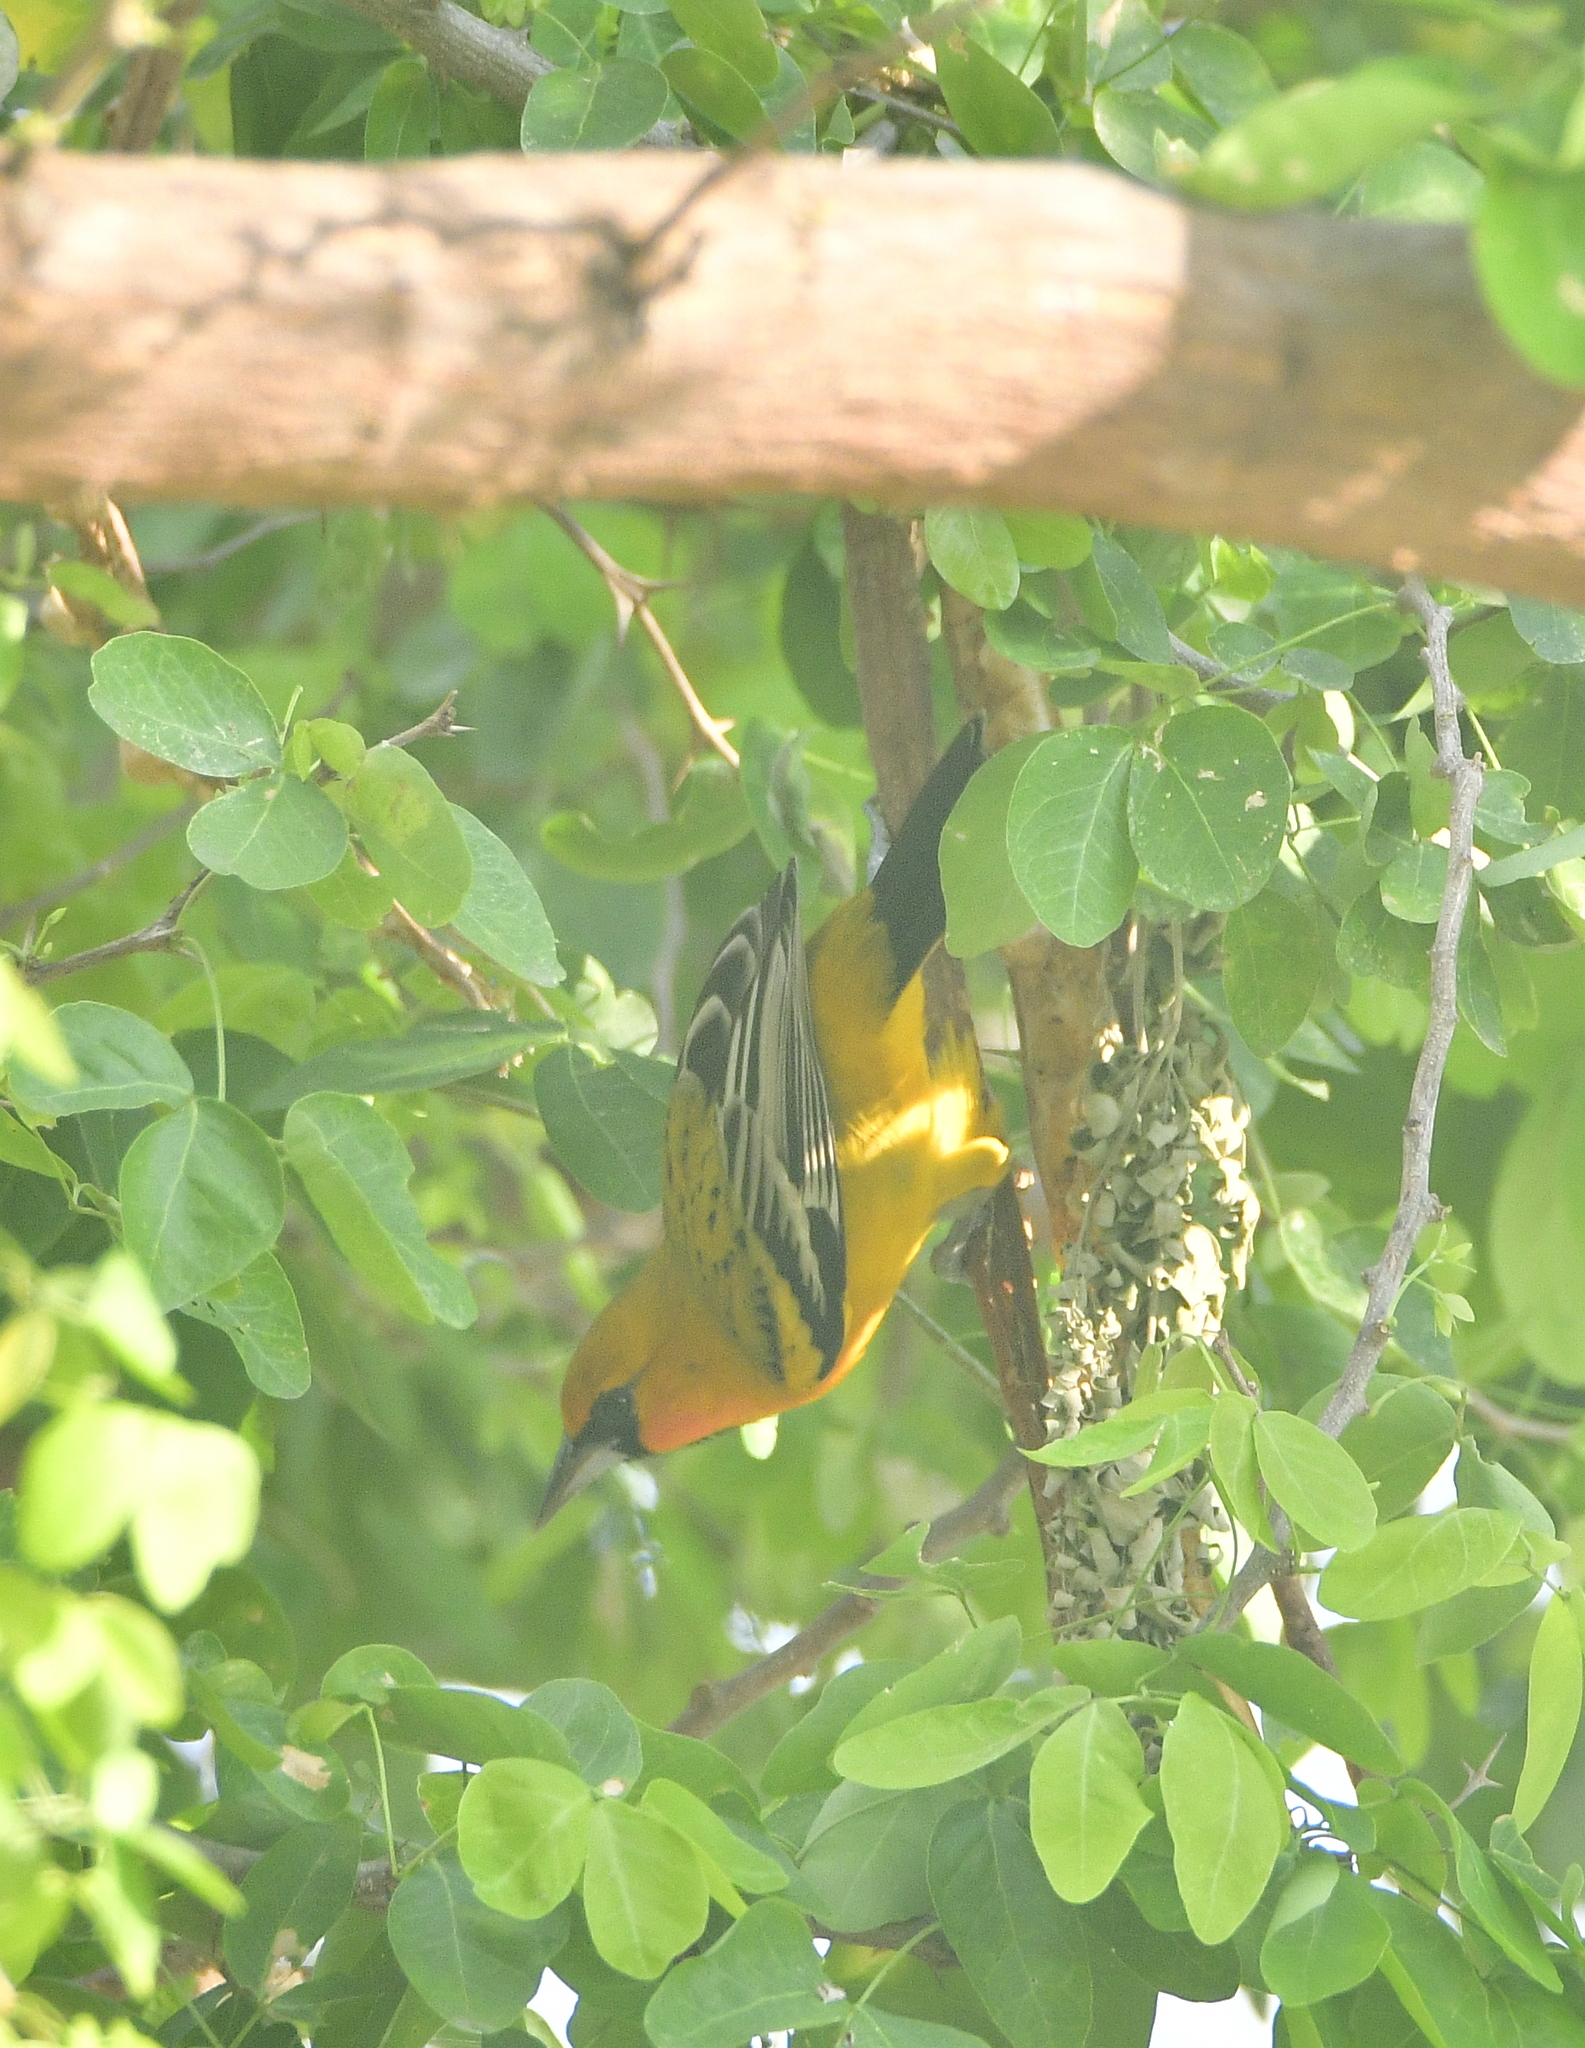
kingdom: Animalia
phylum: Chordata
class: Aves
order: Passeriformes
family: Icteridae
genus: Icterus
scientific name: Icterus pustulatus
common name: Streak-backed oriole
